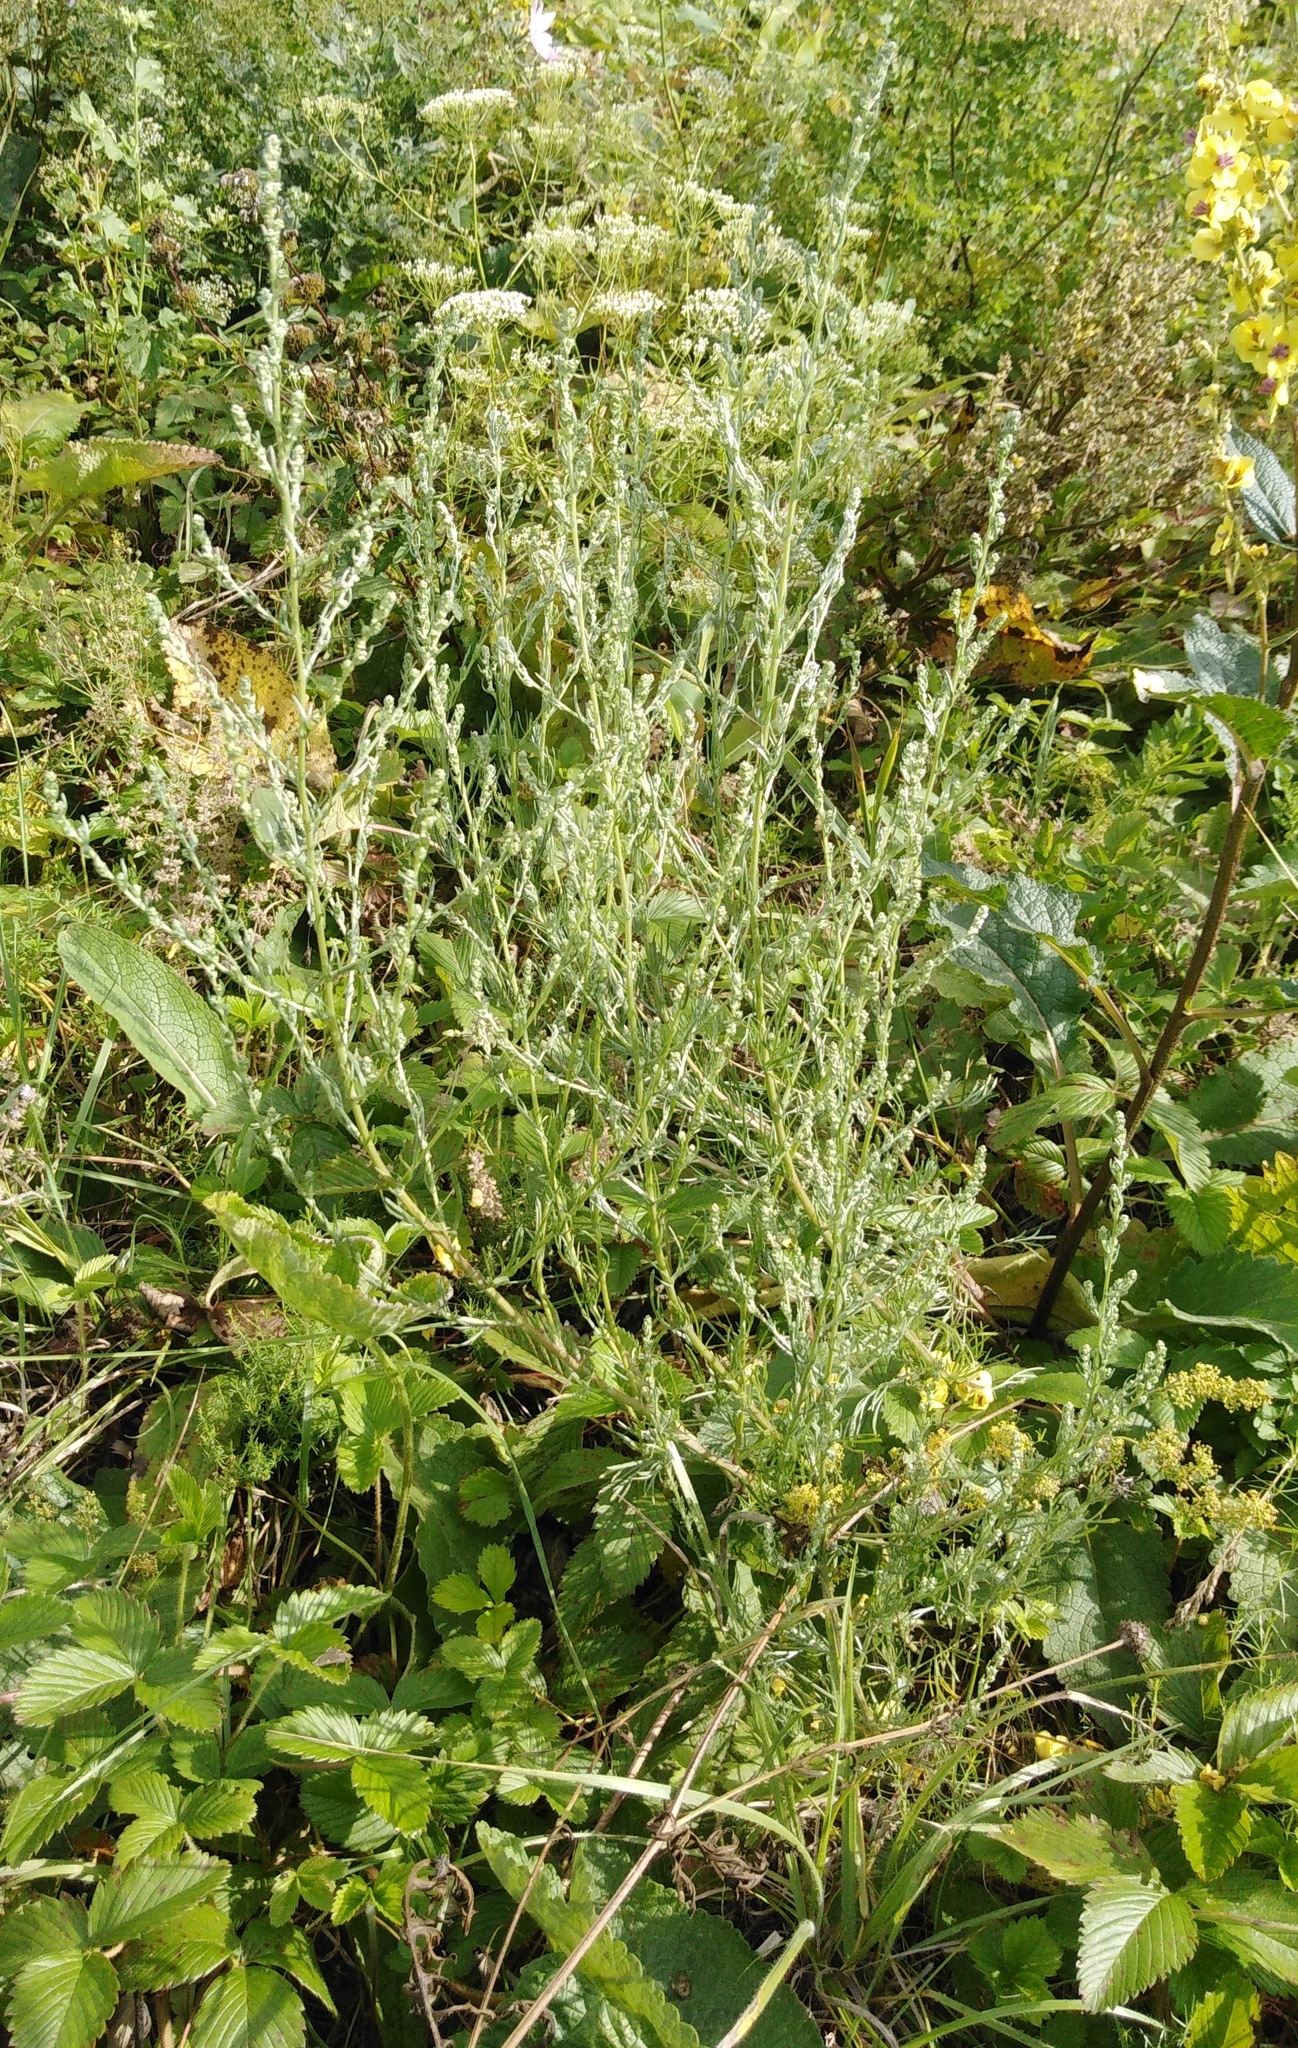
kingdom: Plantae
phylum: Tracheophyta
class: Magnoliopsida
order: Asterales
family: Asteraceae
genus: Artemisia
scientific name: Artemisia campestris
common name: Field wormwood
